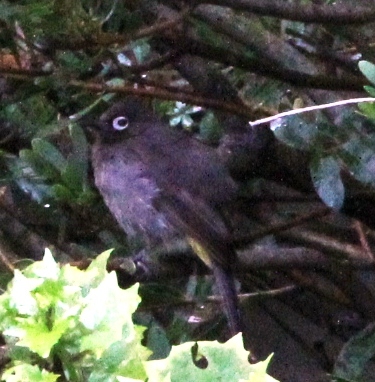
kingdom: Animalia
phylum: Chordata
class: Aves
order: Passeriformes
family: Pycnonotidae
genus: Pycnonotus
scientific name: Pycnonotus capensis
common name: Cape bulbul
